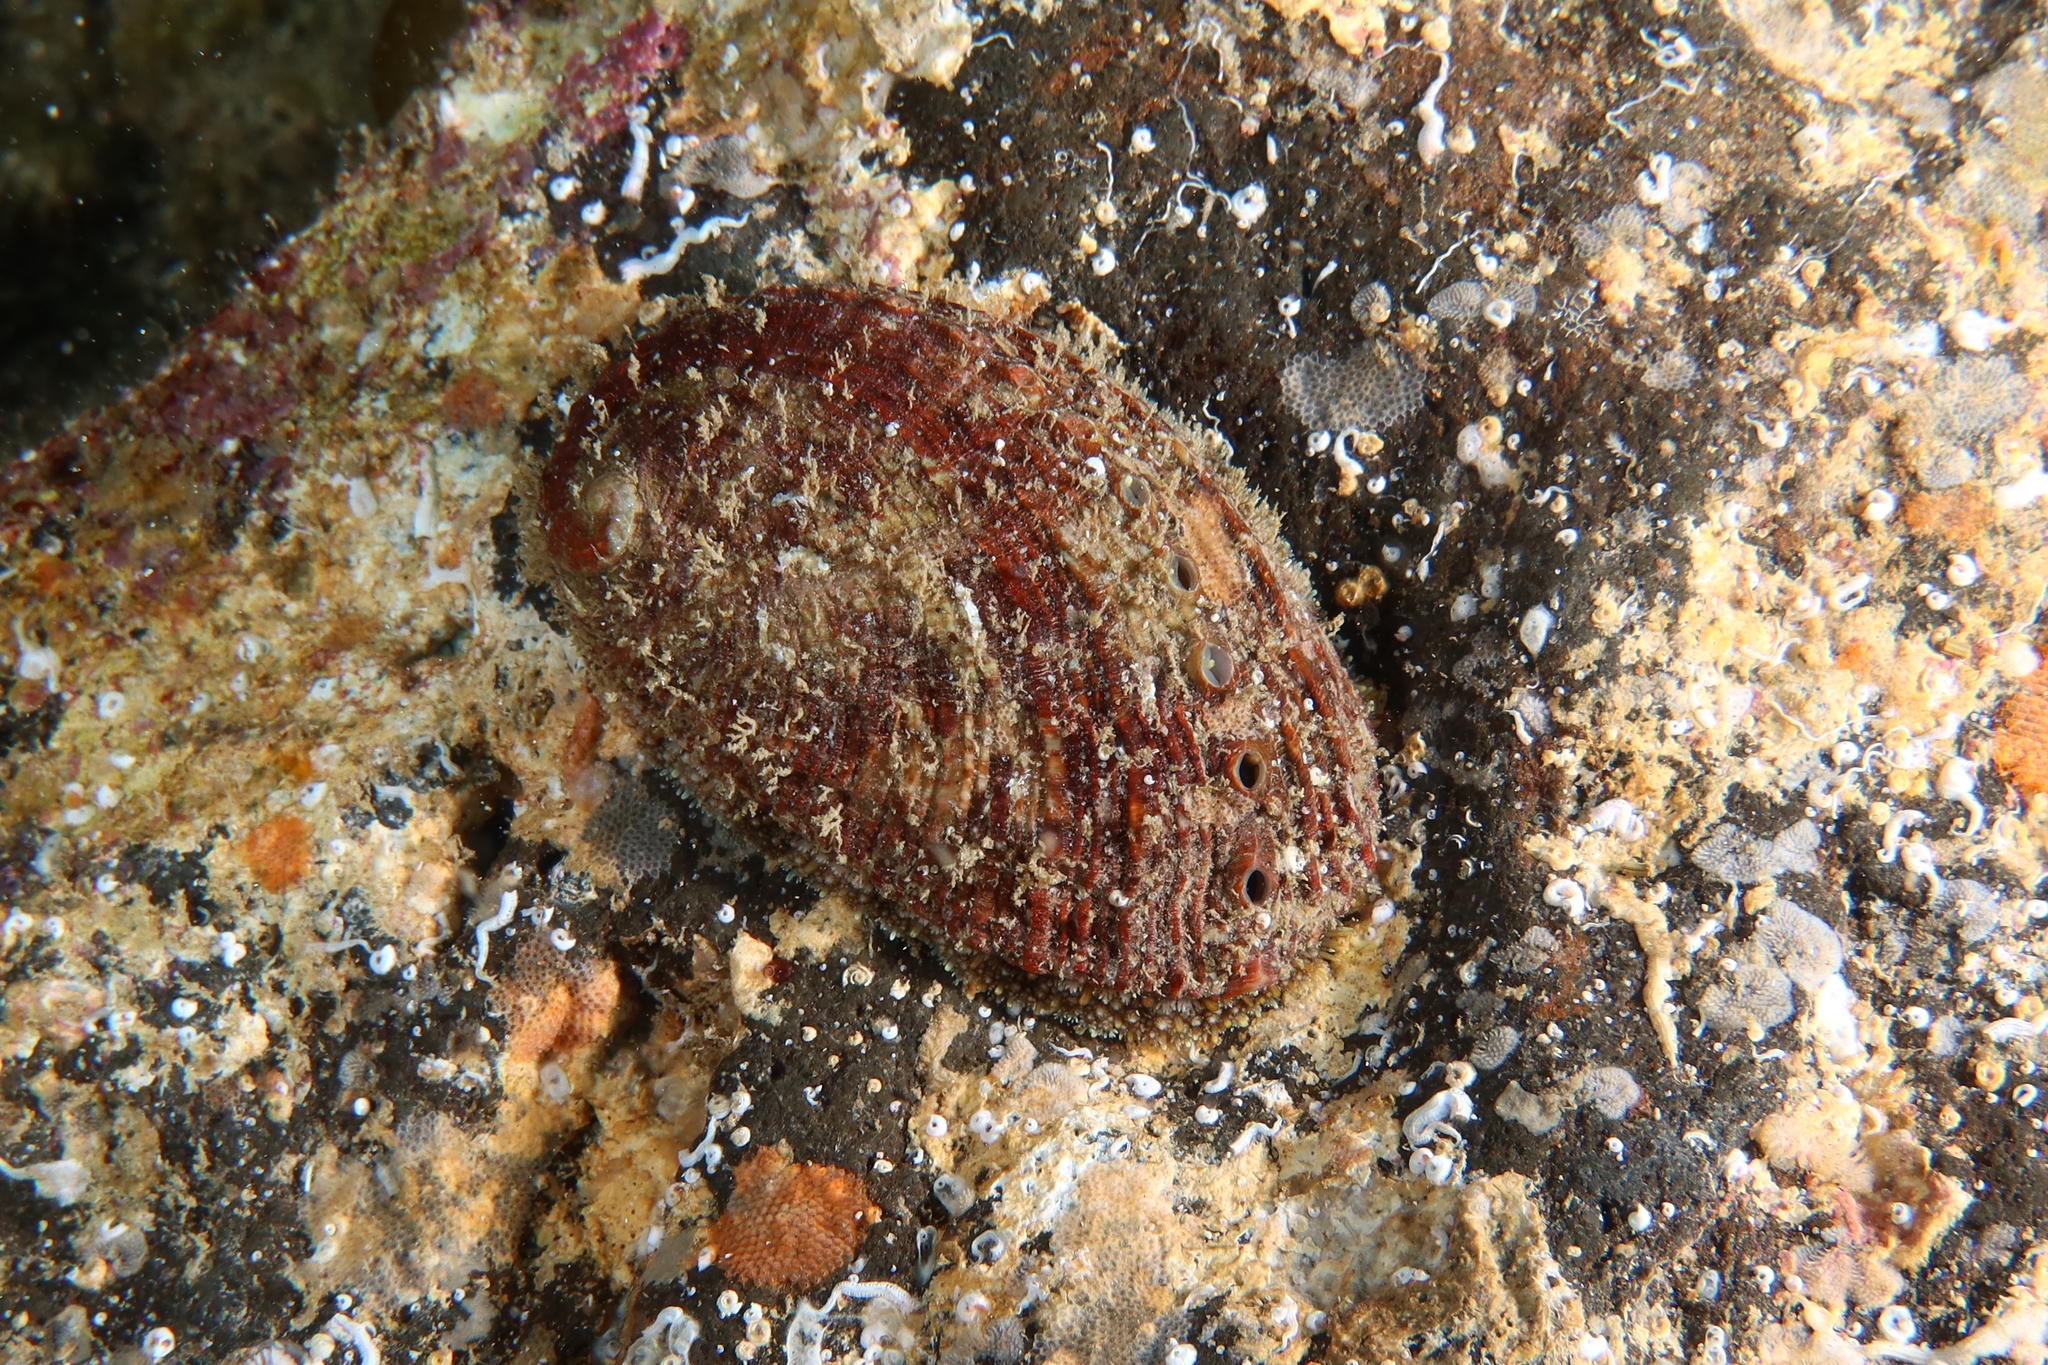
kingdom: Animalia
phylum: Mollusca
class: Gastropoda
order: Lepetellida
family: Haliotidae
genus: Haliotis
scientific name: Haliotis tuberculata
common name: Green ormer
